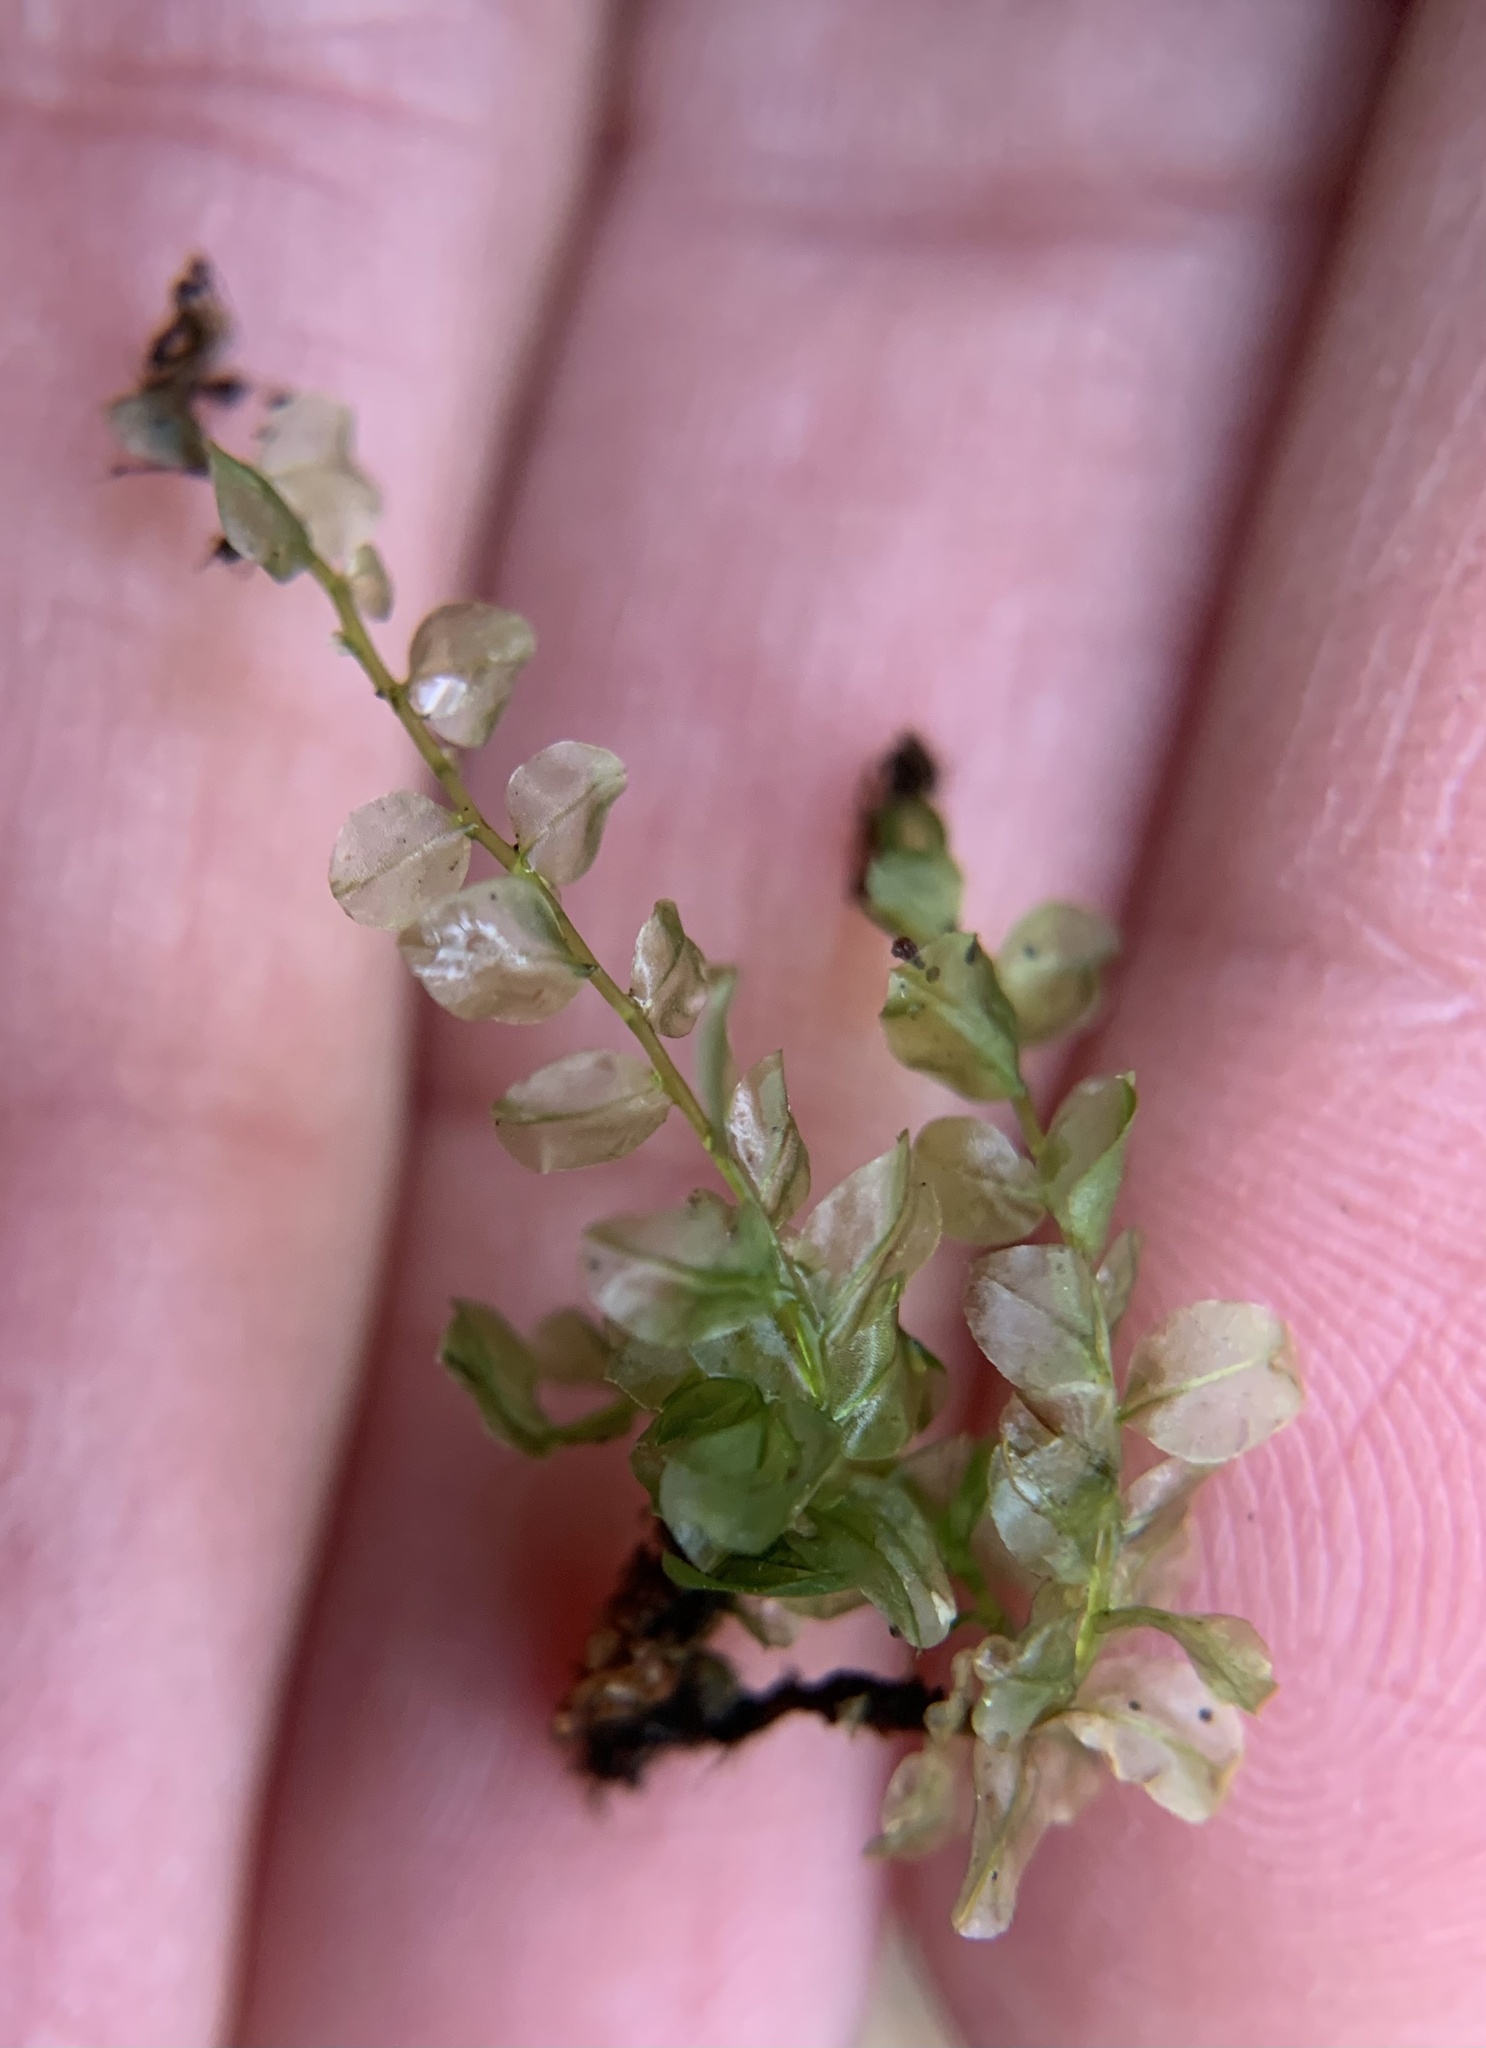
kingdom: Plantae
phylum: Bryophyta
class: Bryopsida
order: Bryales
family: Mniaceae
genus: Plagiomnium
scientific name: Plagiomnium affine
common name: Many-fruited thyme-moss
